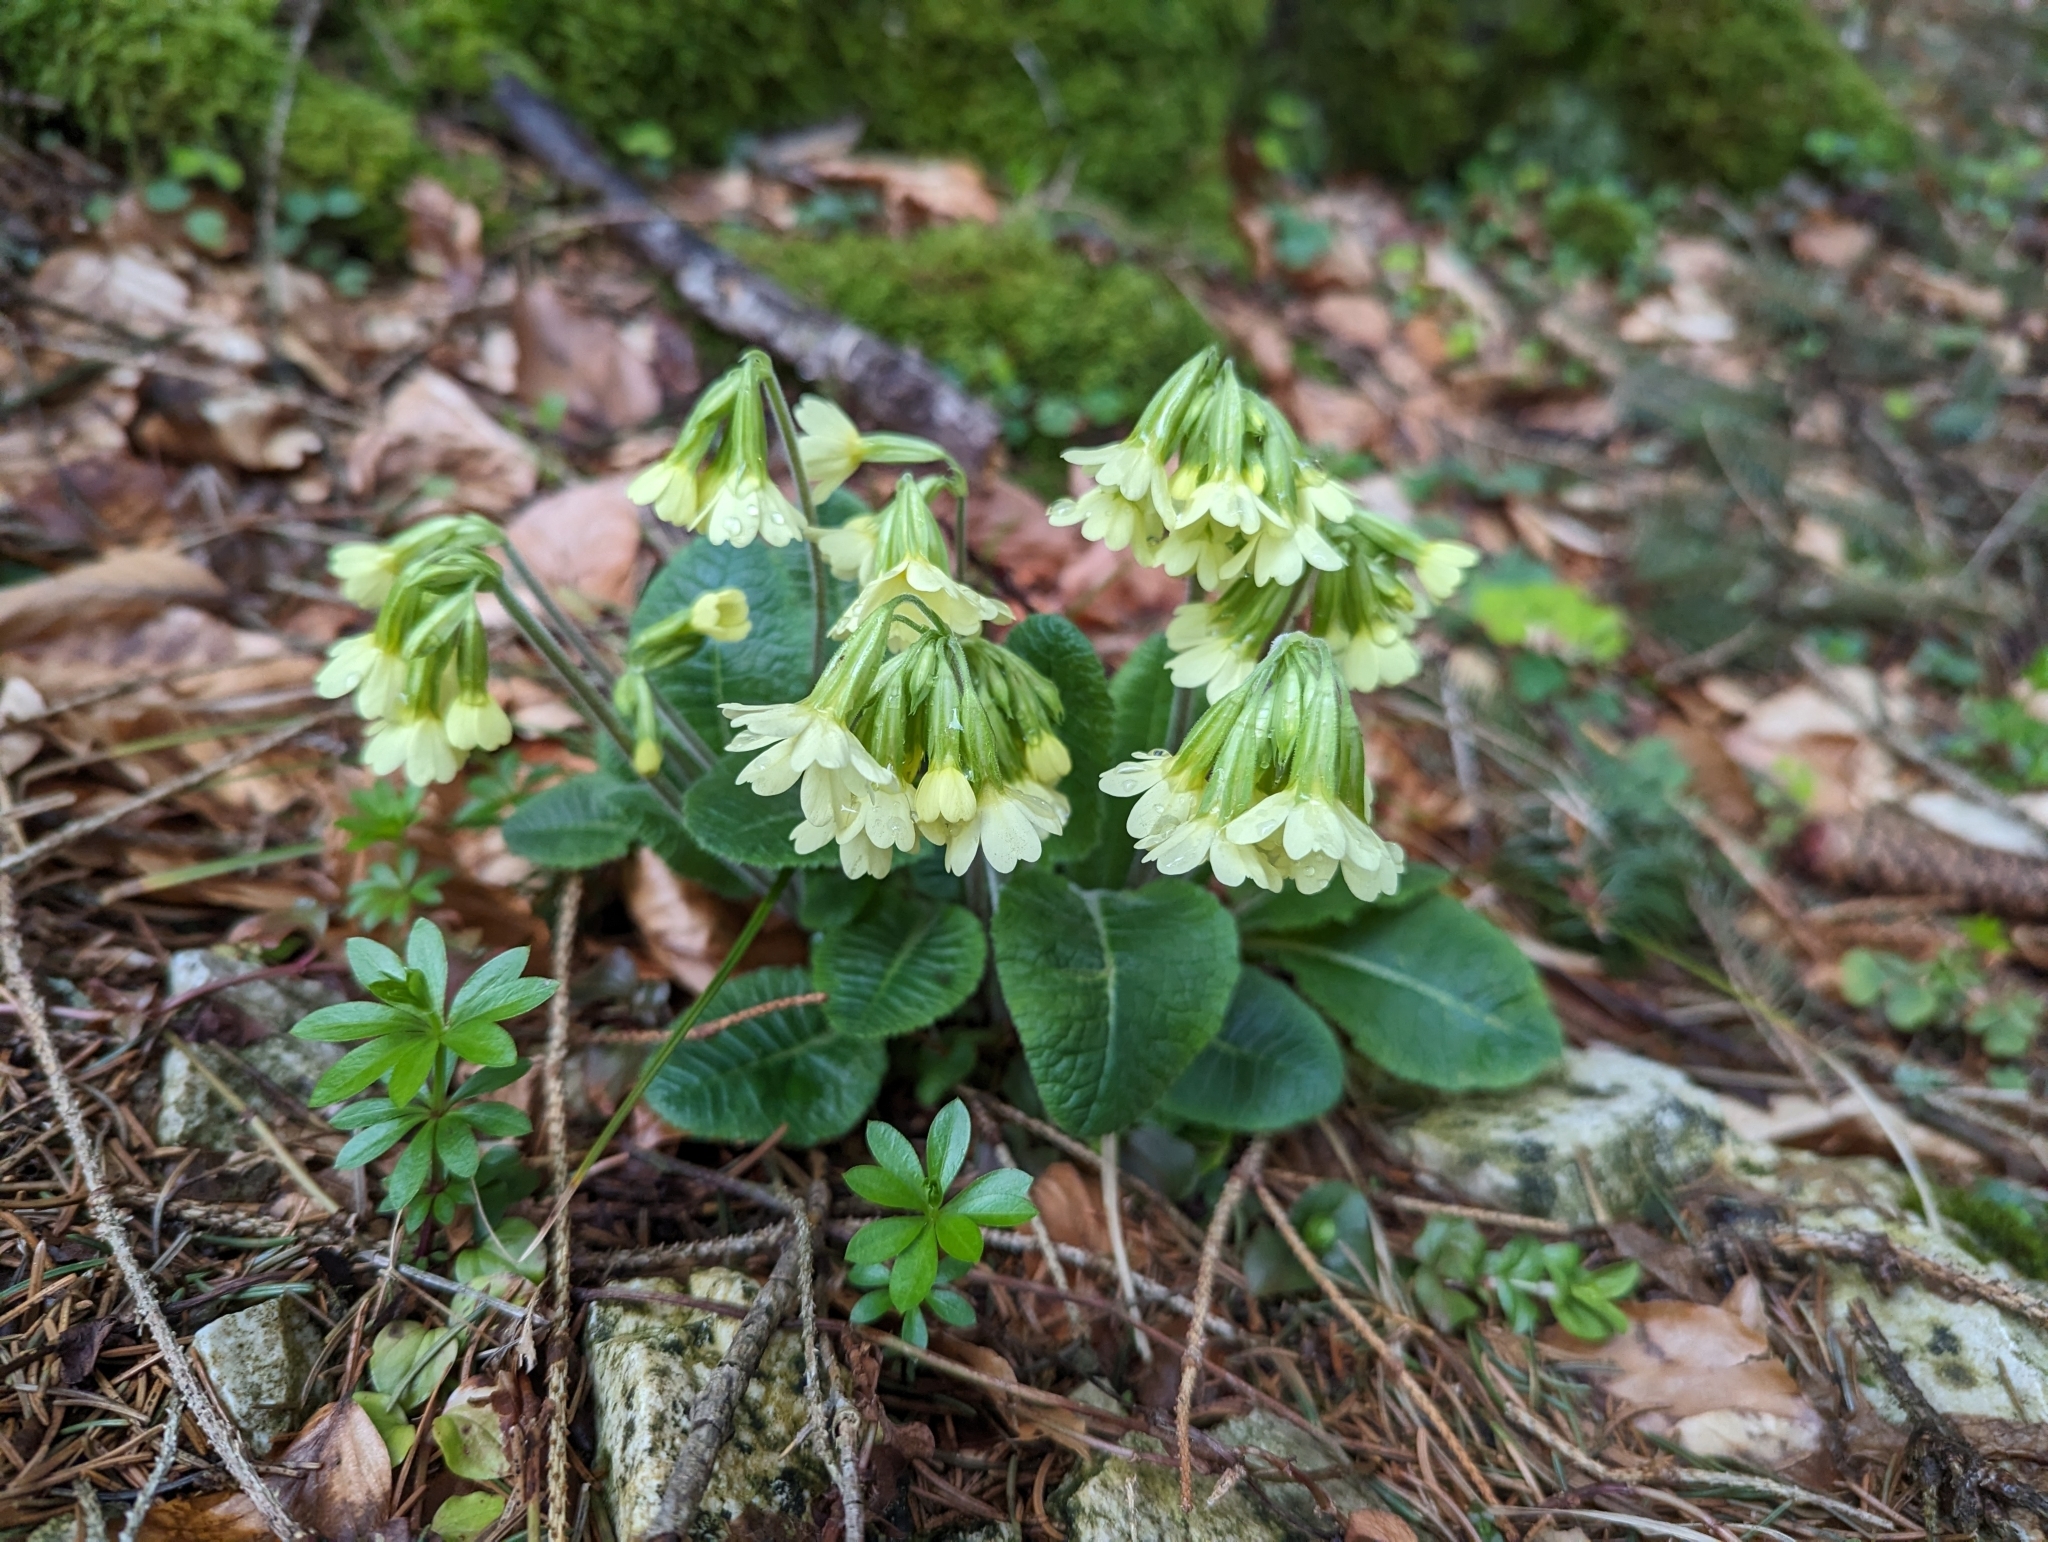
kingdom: Plantae
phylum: Tracheophyta
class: Magnoliopsida
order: Ericales
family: Primulaceae
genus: Primula
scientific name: Primula elatior
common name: Oxlip
